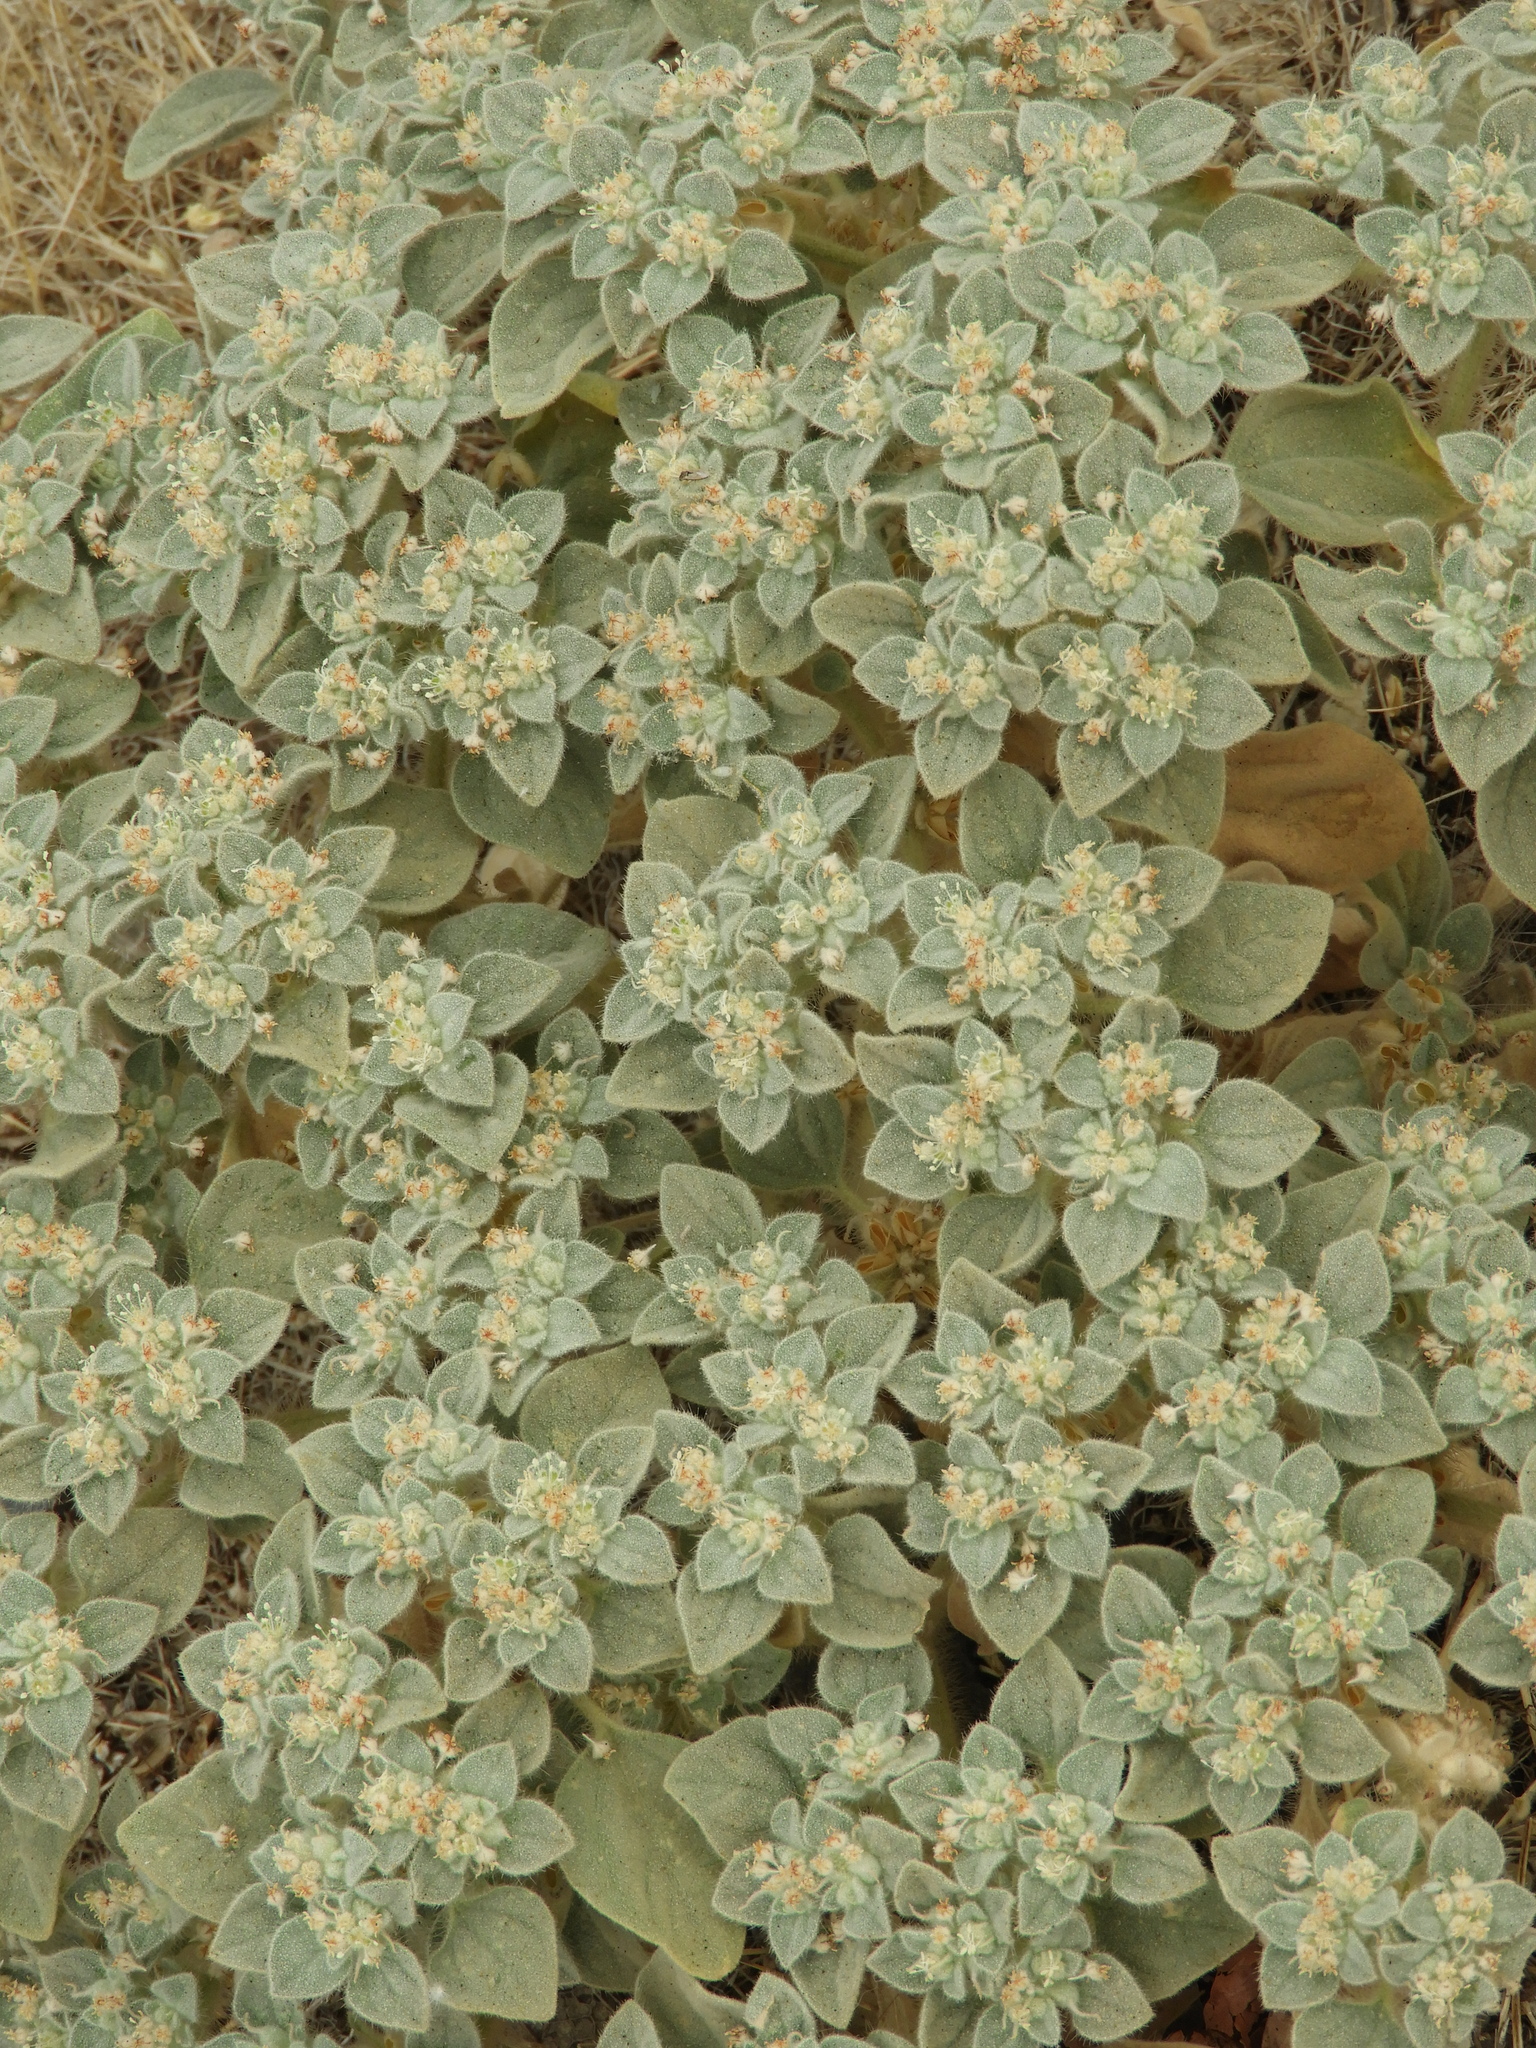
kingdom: Plantae
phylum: Tracheophyta
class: Magnoliopsida
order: Malpighiales
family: Euphorbiaceae
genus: Croton
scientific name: Croton setiger
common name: Dove weed
